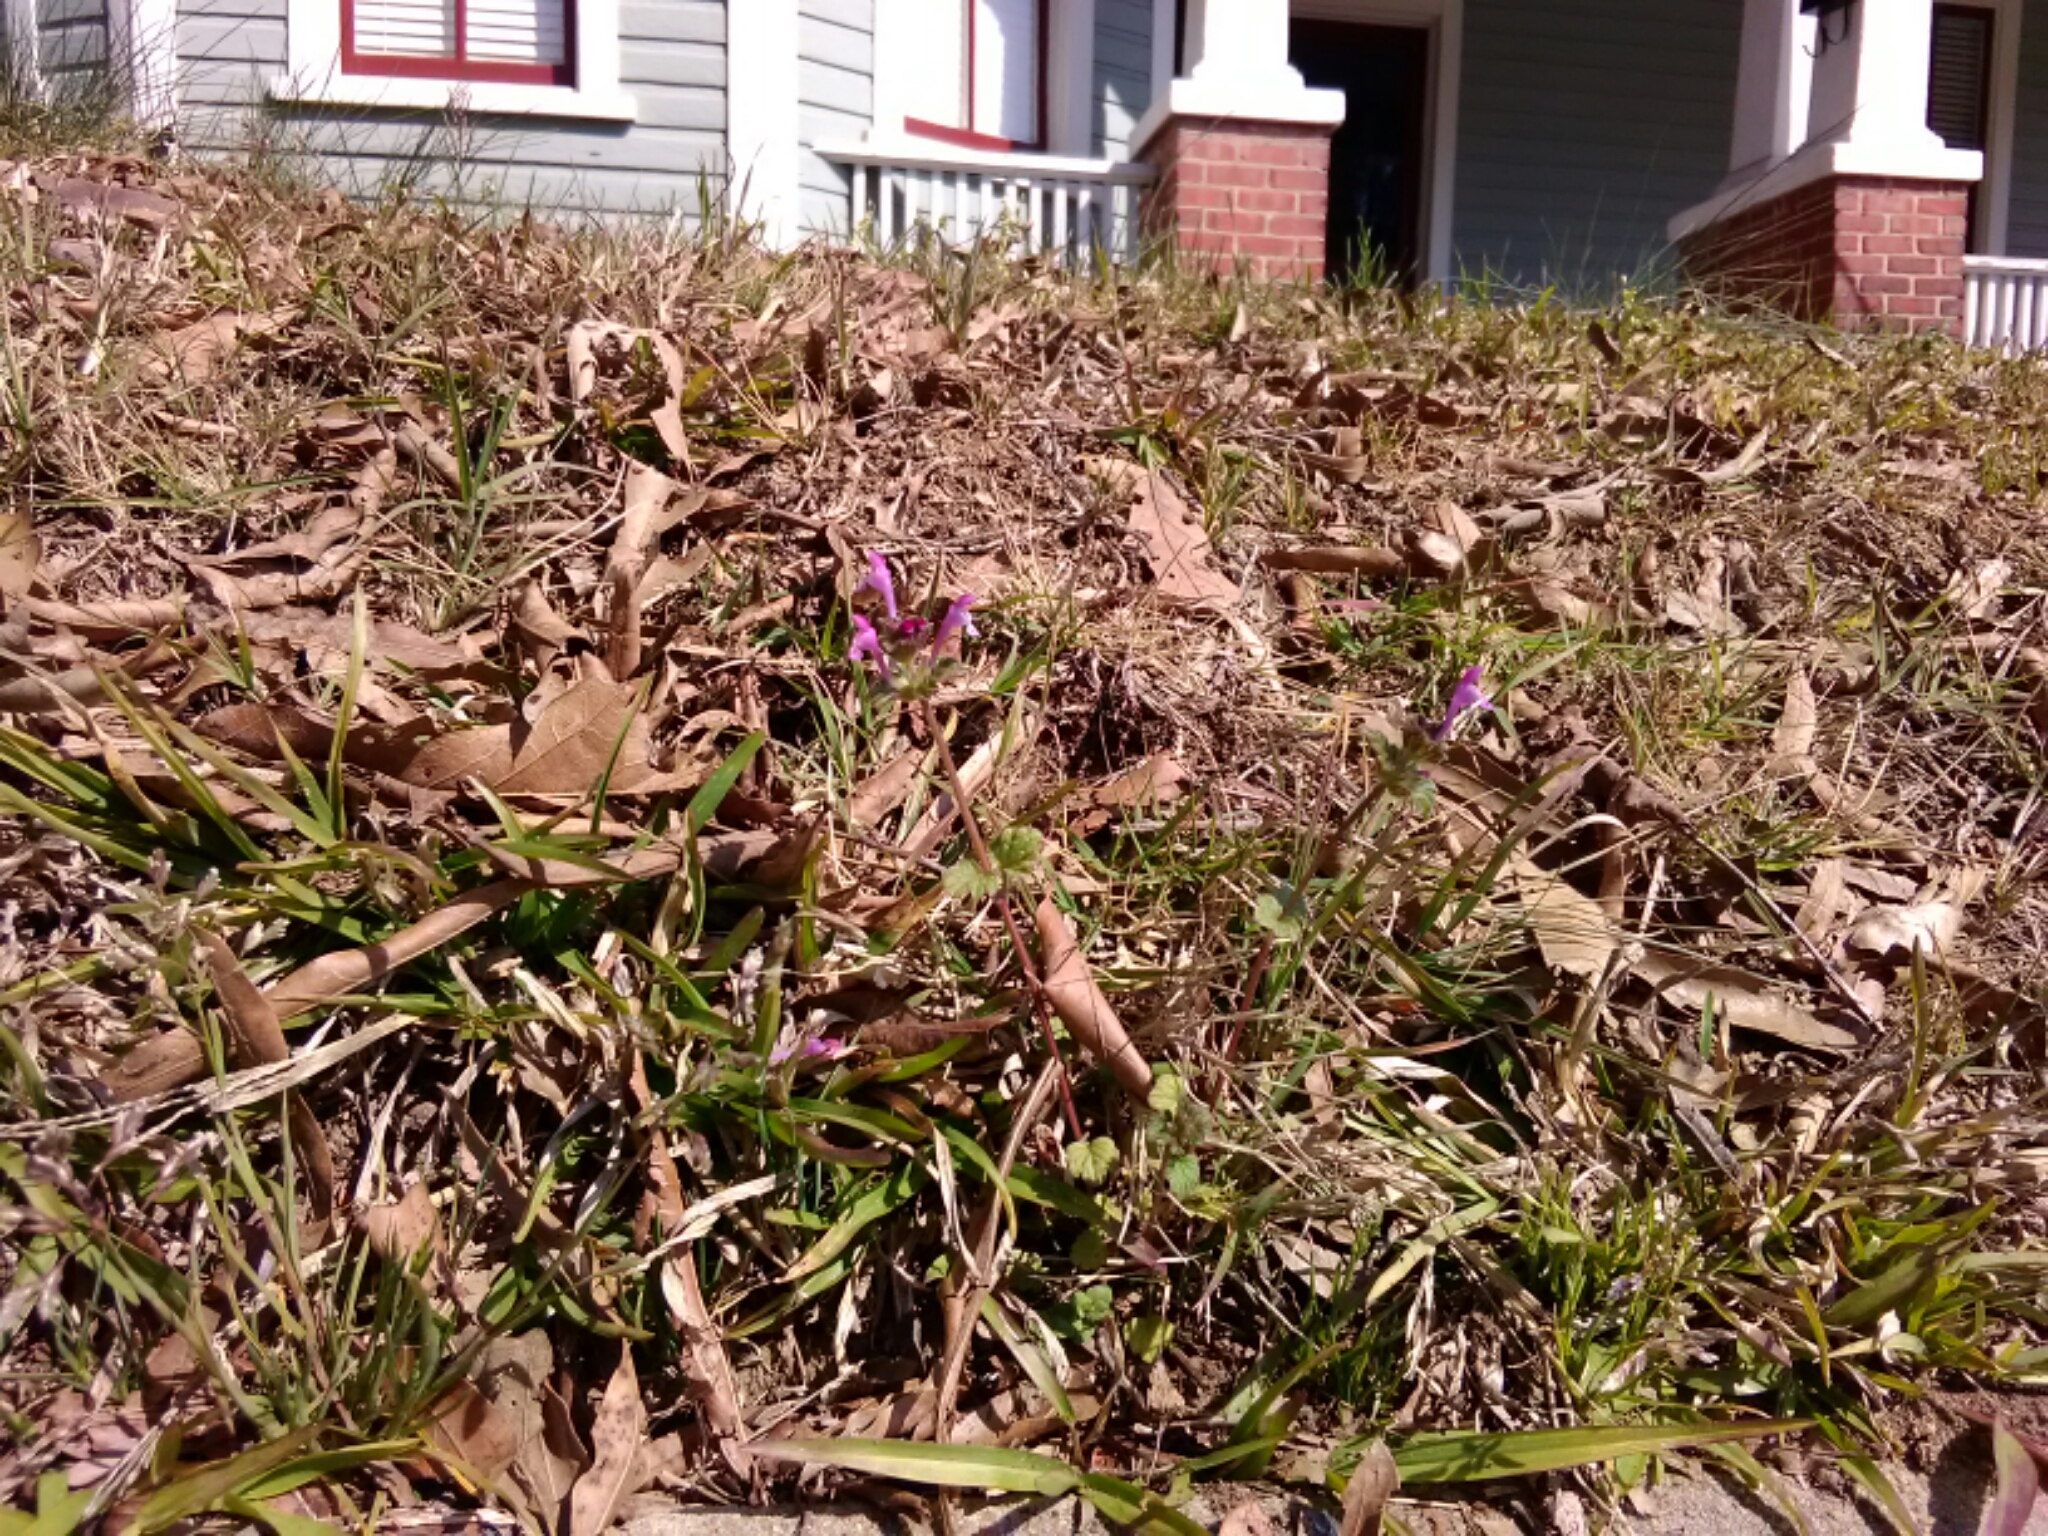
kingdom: Plantae
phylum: Tracheophyta
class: Magnoliopsida
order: Lamiales
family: Lamiaceae
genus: Lamium
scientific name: Lamium amplexicaule
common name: Henbit dead-nettle
